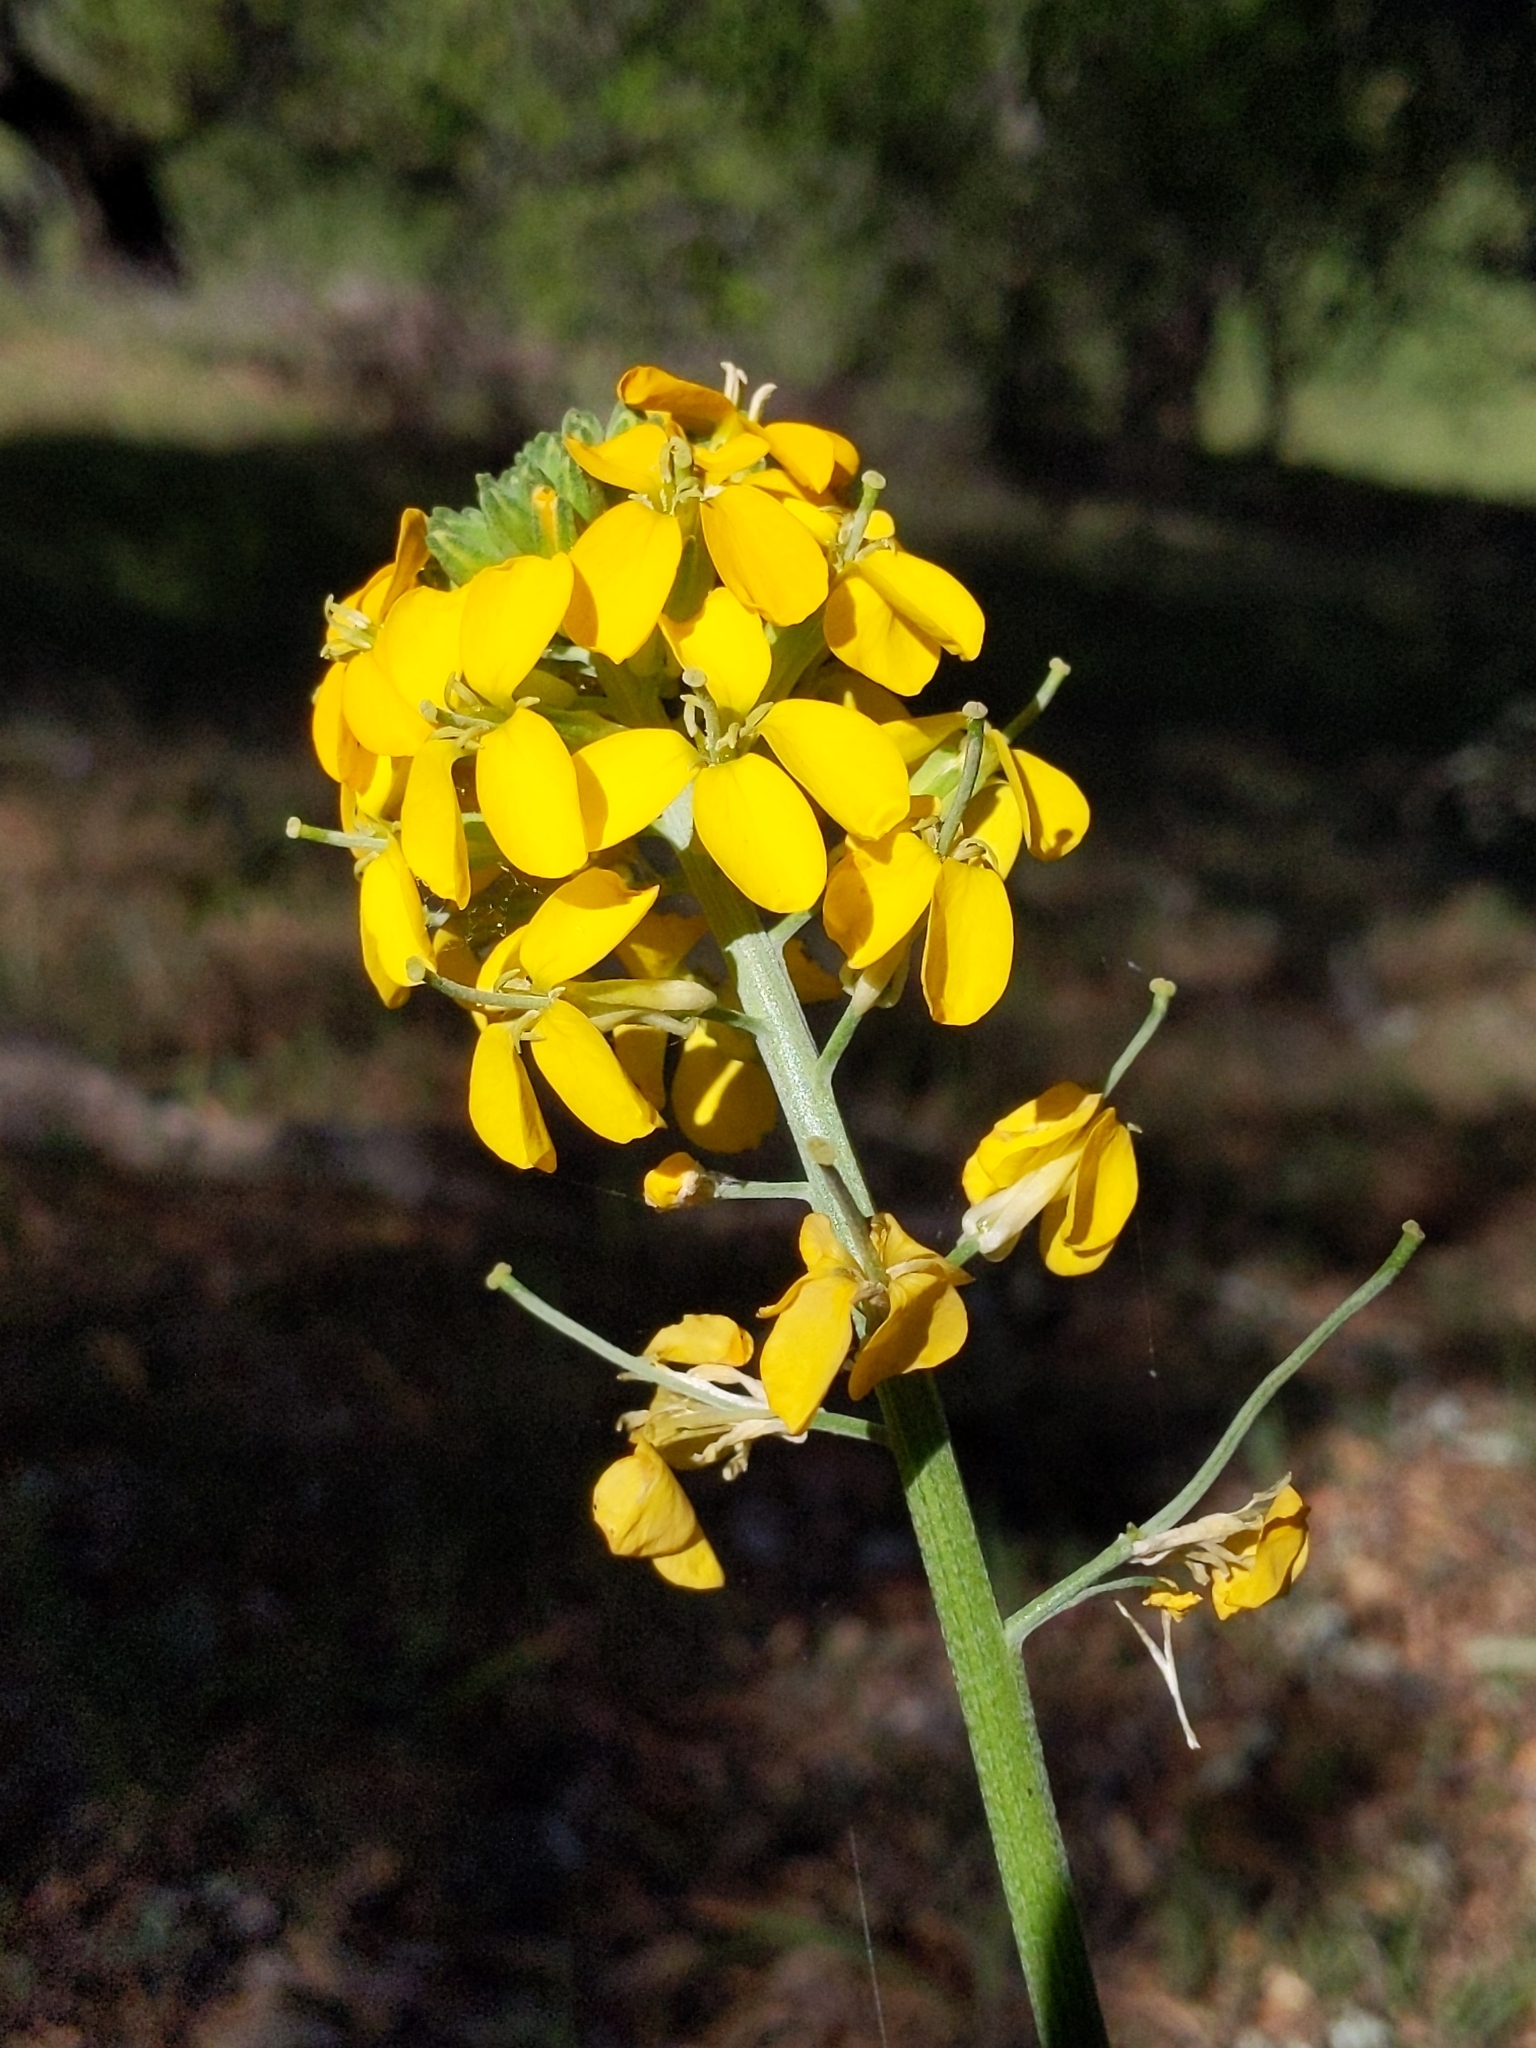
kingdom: Plantae
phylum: Tracheophyta
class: Magnoliopsida
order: Brassicales
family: Brassicaceae
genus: Erysimum
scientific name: Erysimum capitatum
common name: Western wallflower
